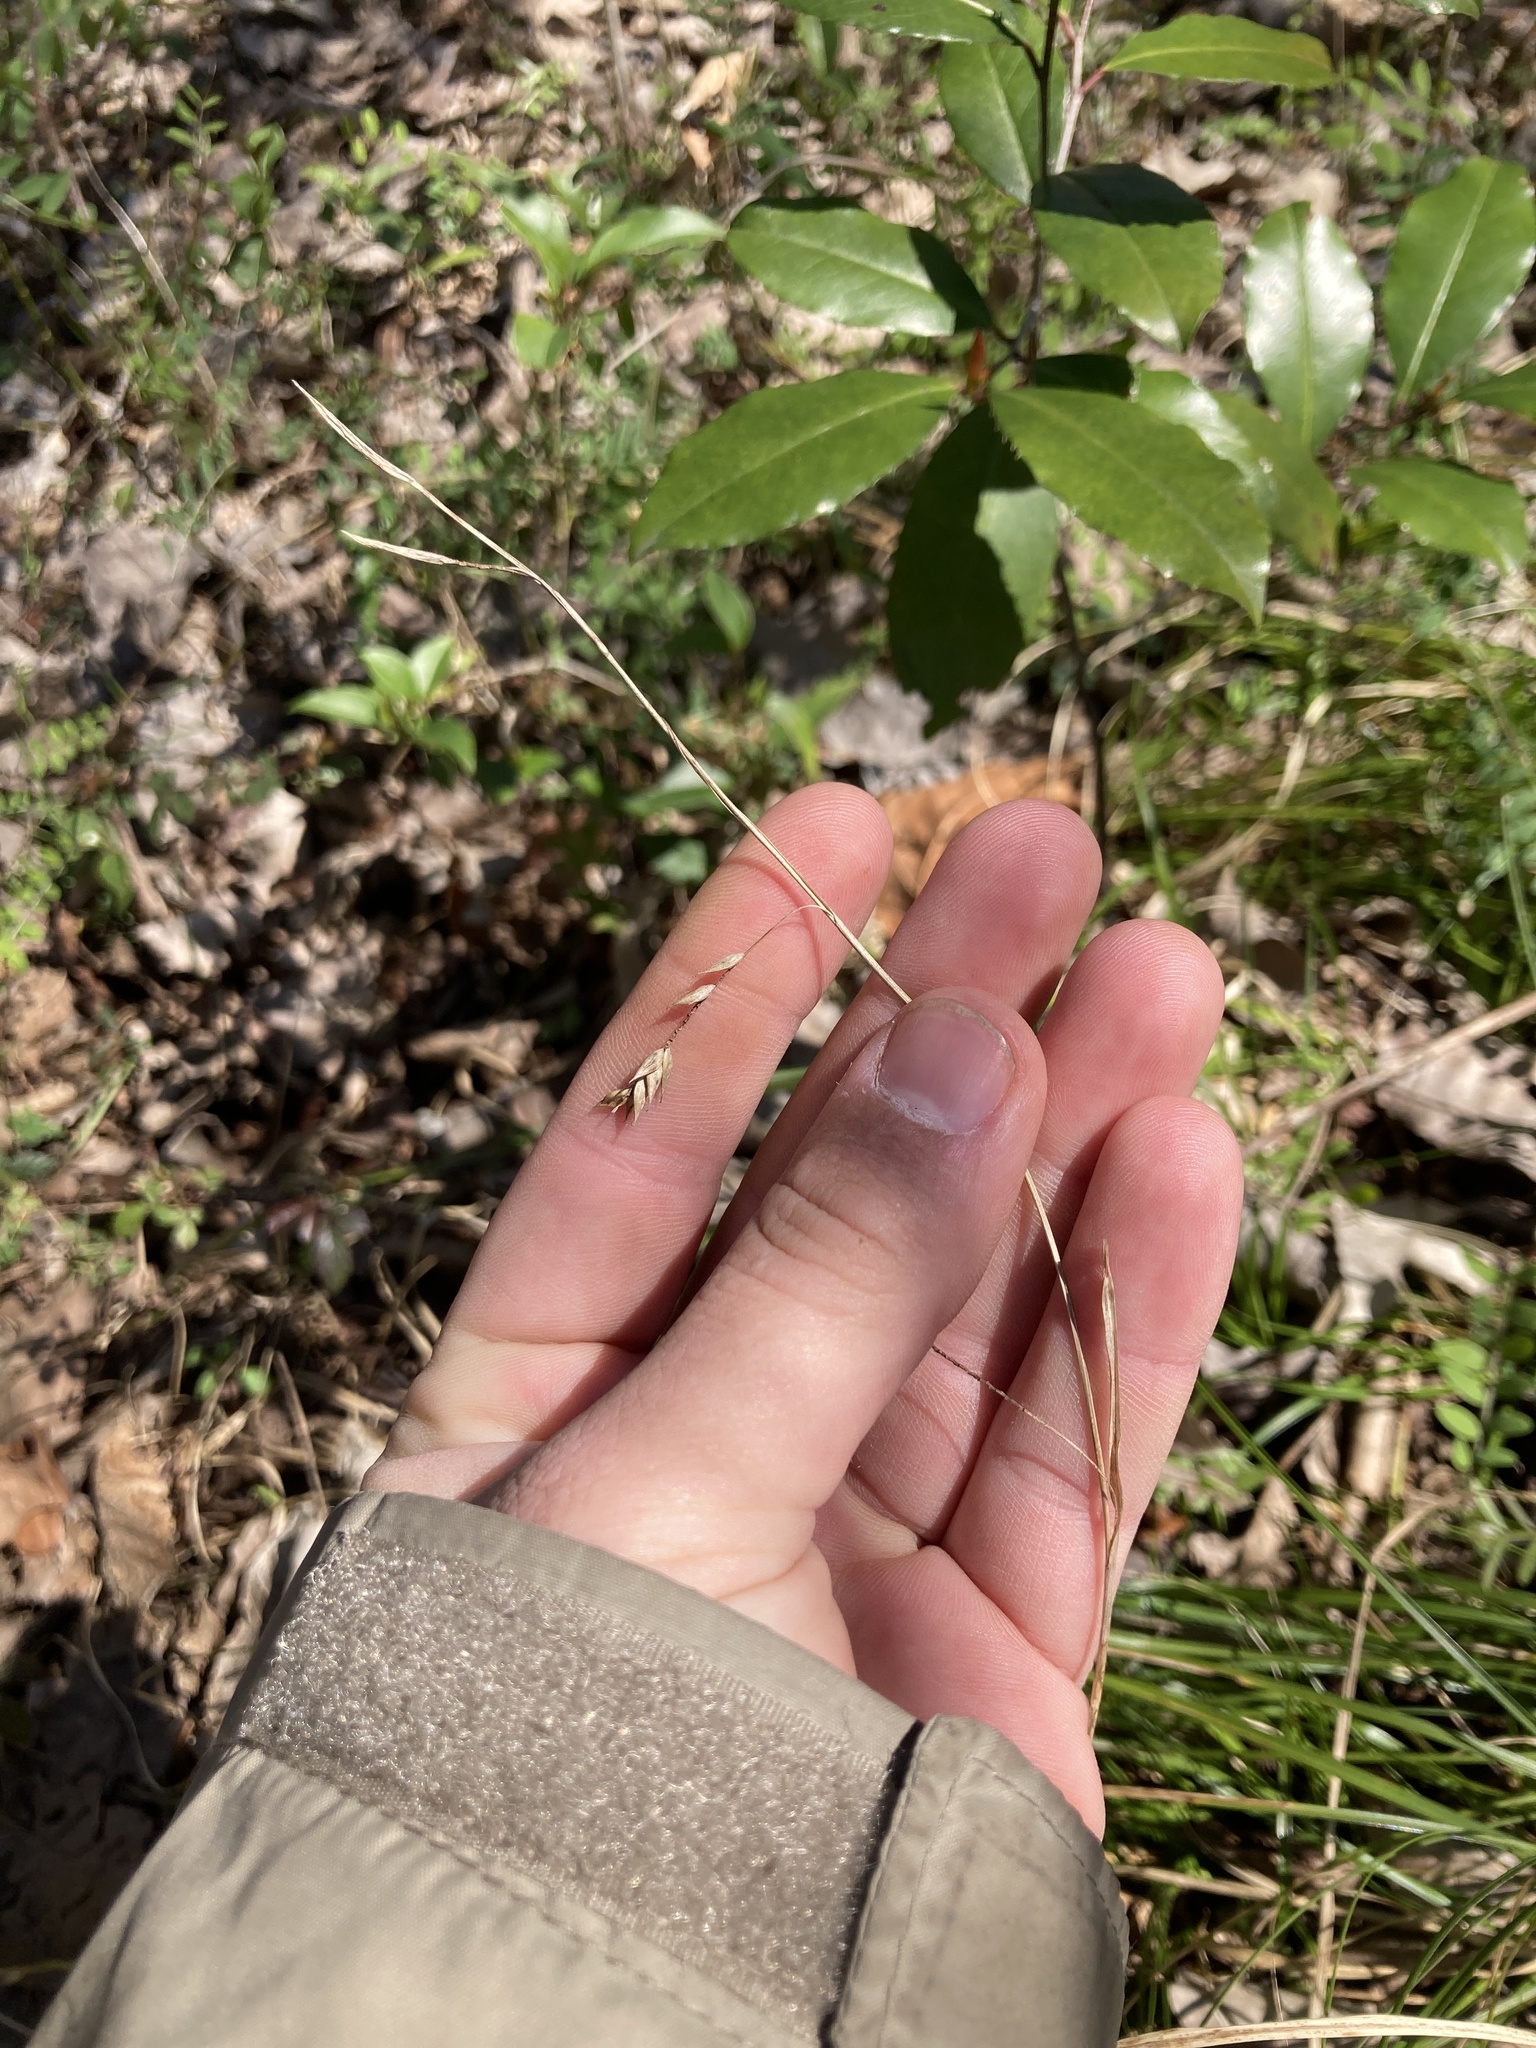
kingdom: Plantae
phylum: Tracheophyta
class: Liliopsida
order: Poales
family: Cyperaceae
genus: Carex
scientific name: Carex cherokeensis
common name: Cherokee sedge
